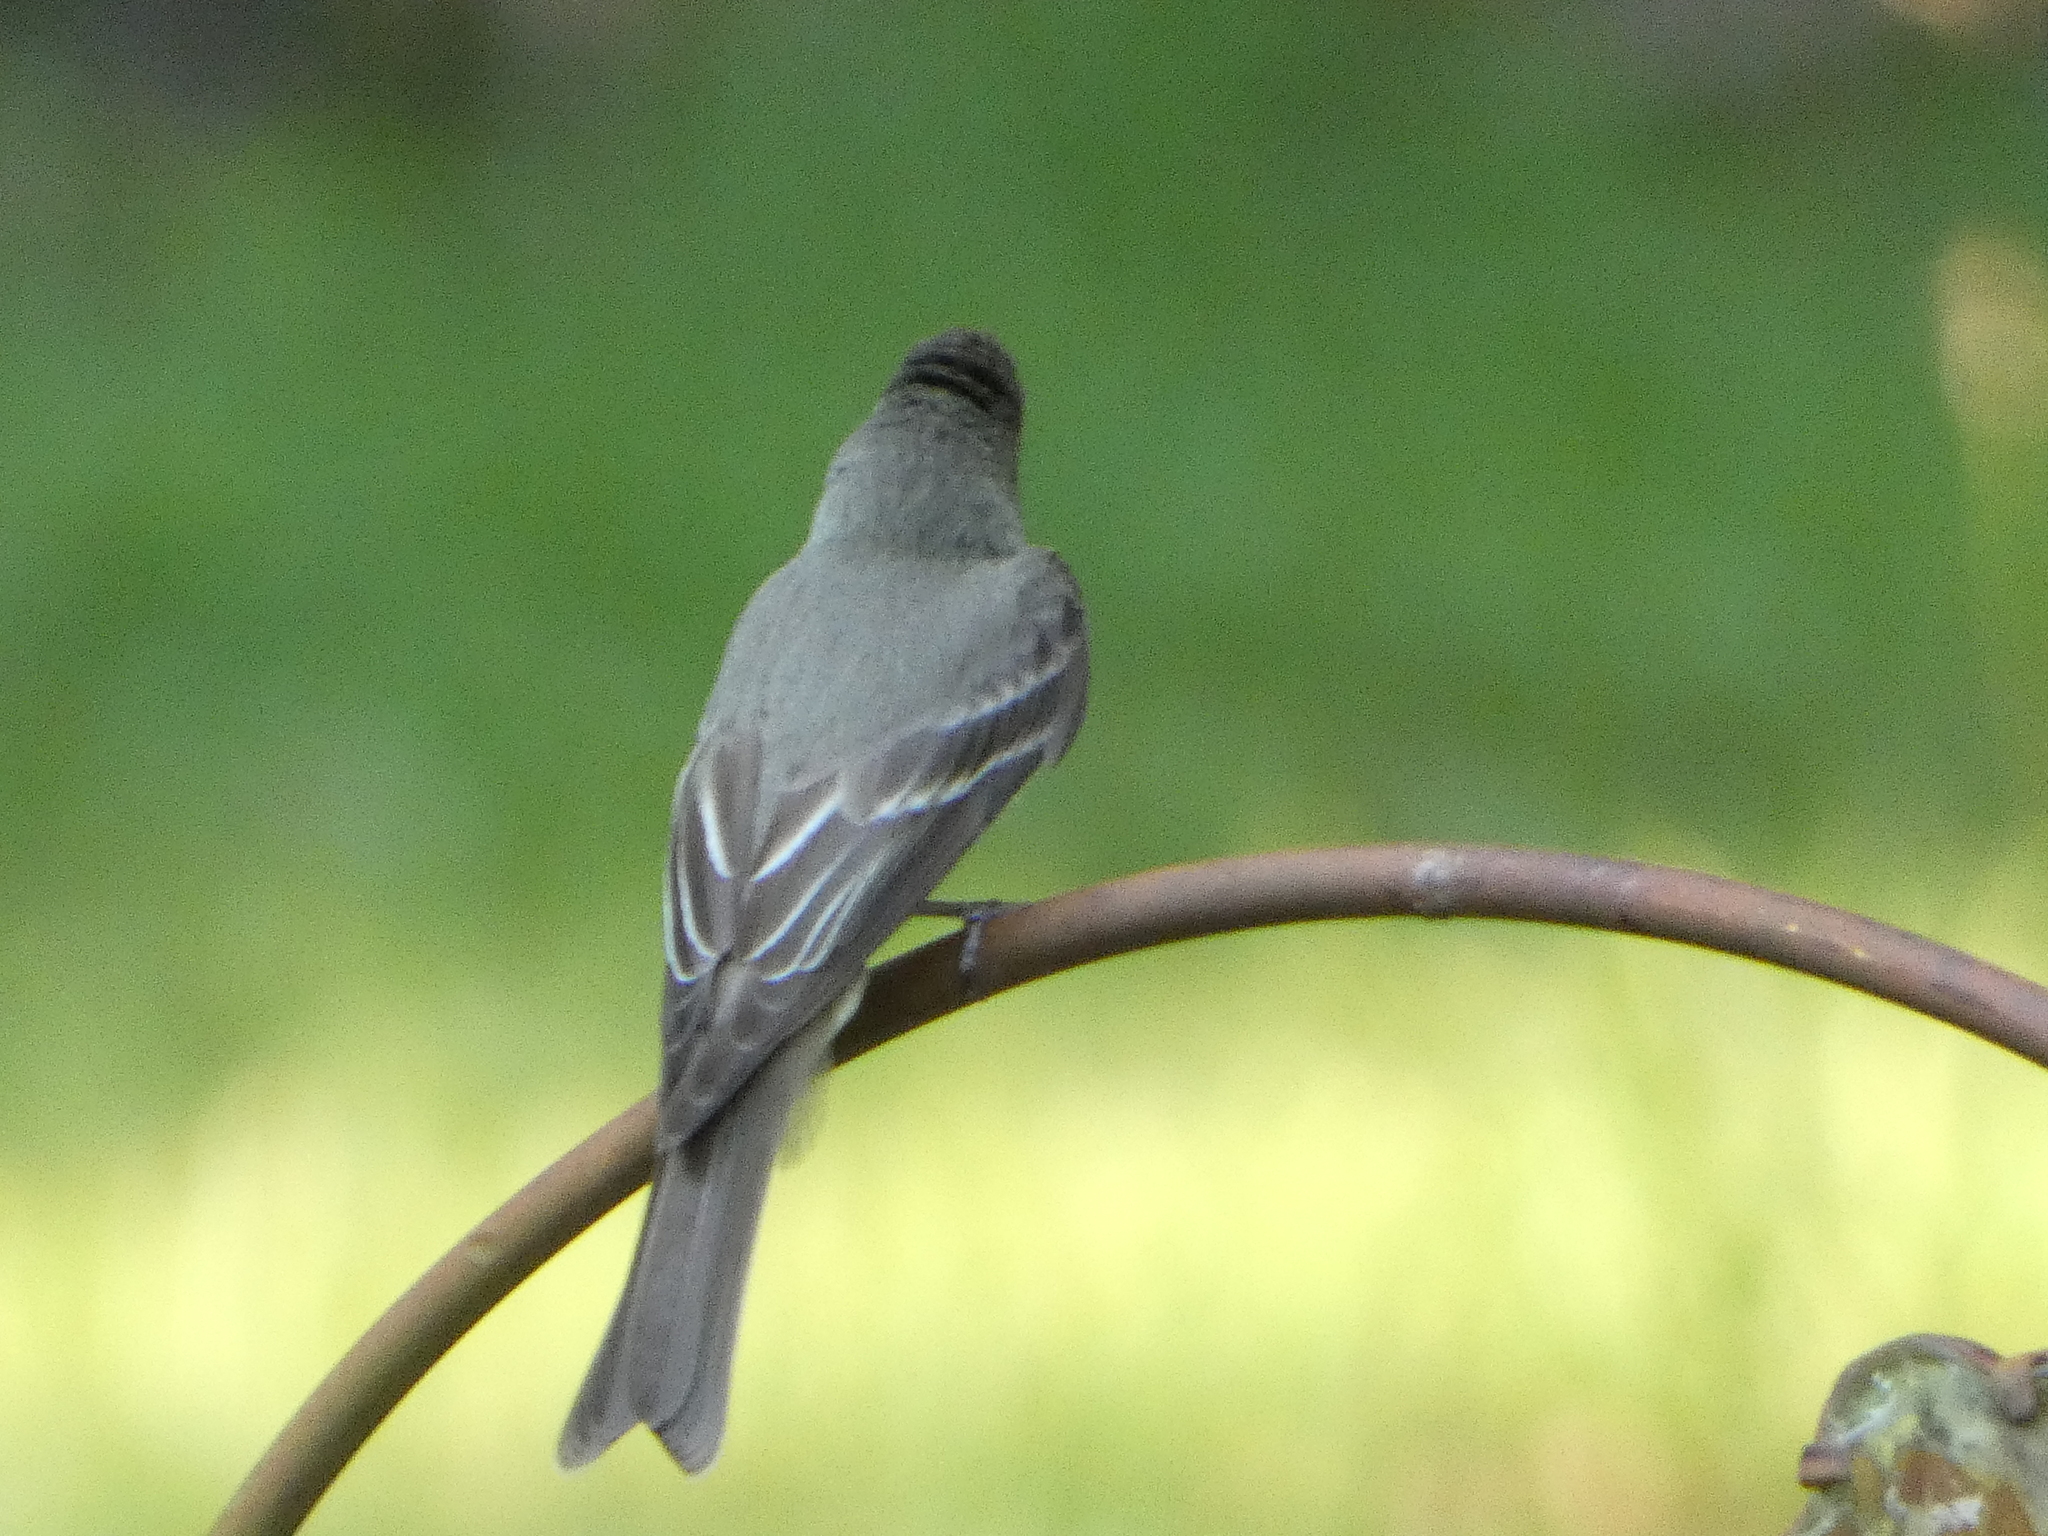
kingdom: Animalia
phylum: Chordata
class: Aves
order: Passeriformes
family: Tyrannidae
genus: Contopus
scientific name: Contopus virens
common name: Eastern wood-pewee
